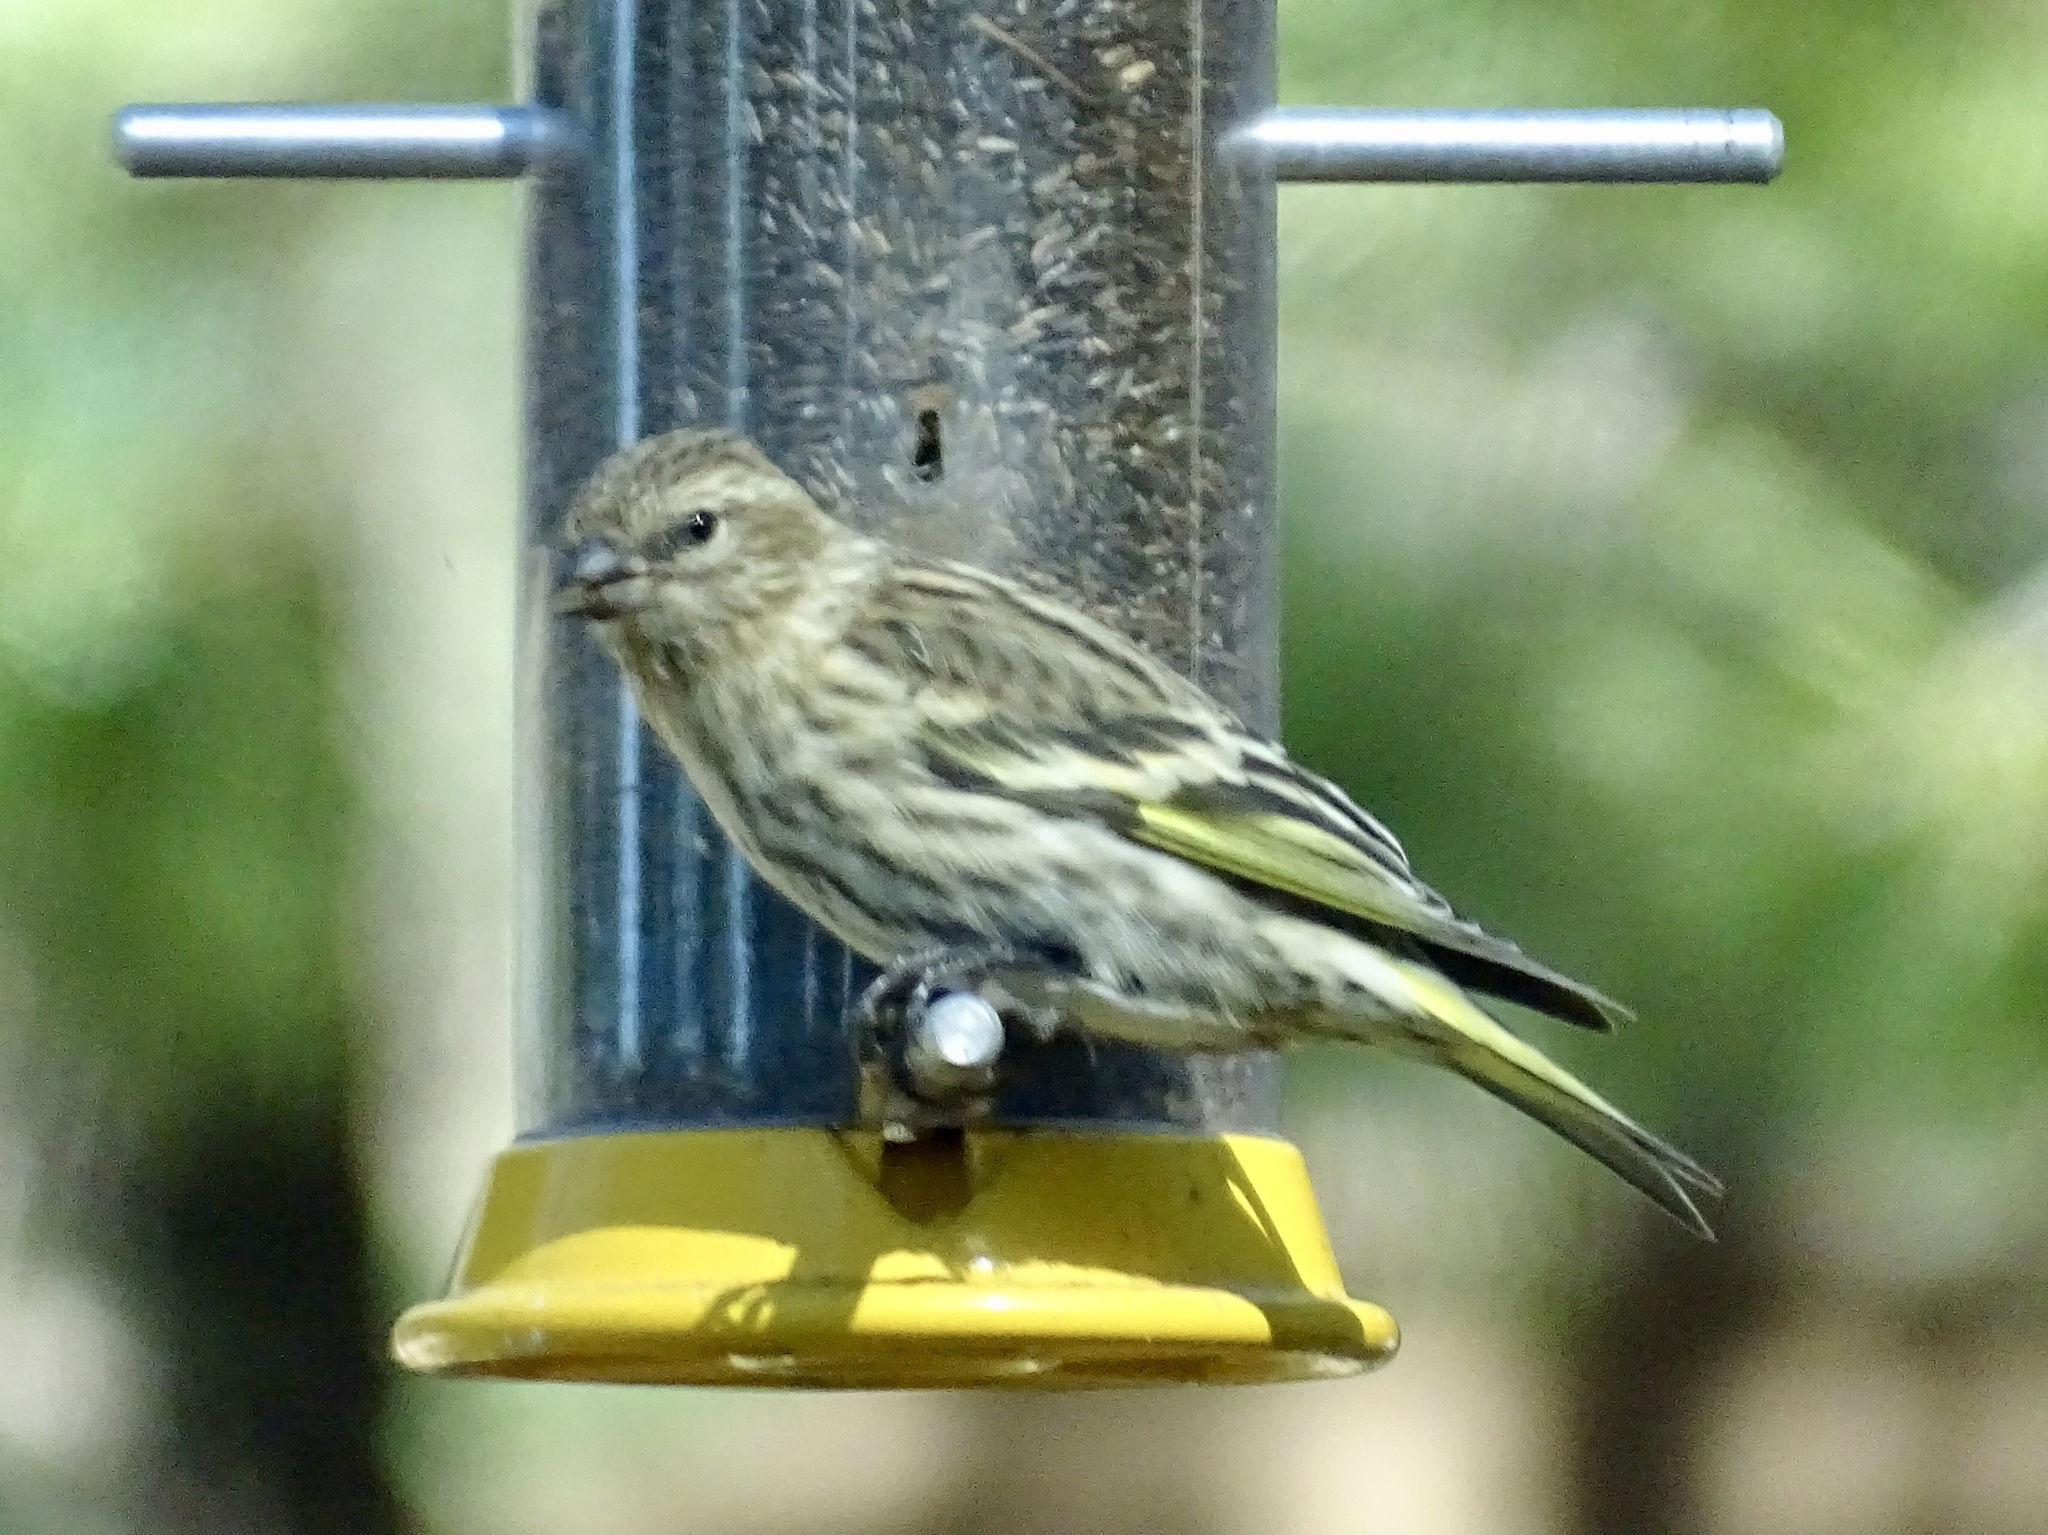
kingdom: Animalia
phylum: Chordata
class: Aves
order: Passeriformes
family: Fringillidae
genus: Spinus
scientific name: Spinus pinus
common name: Pine siskin
